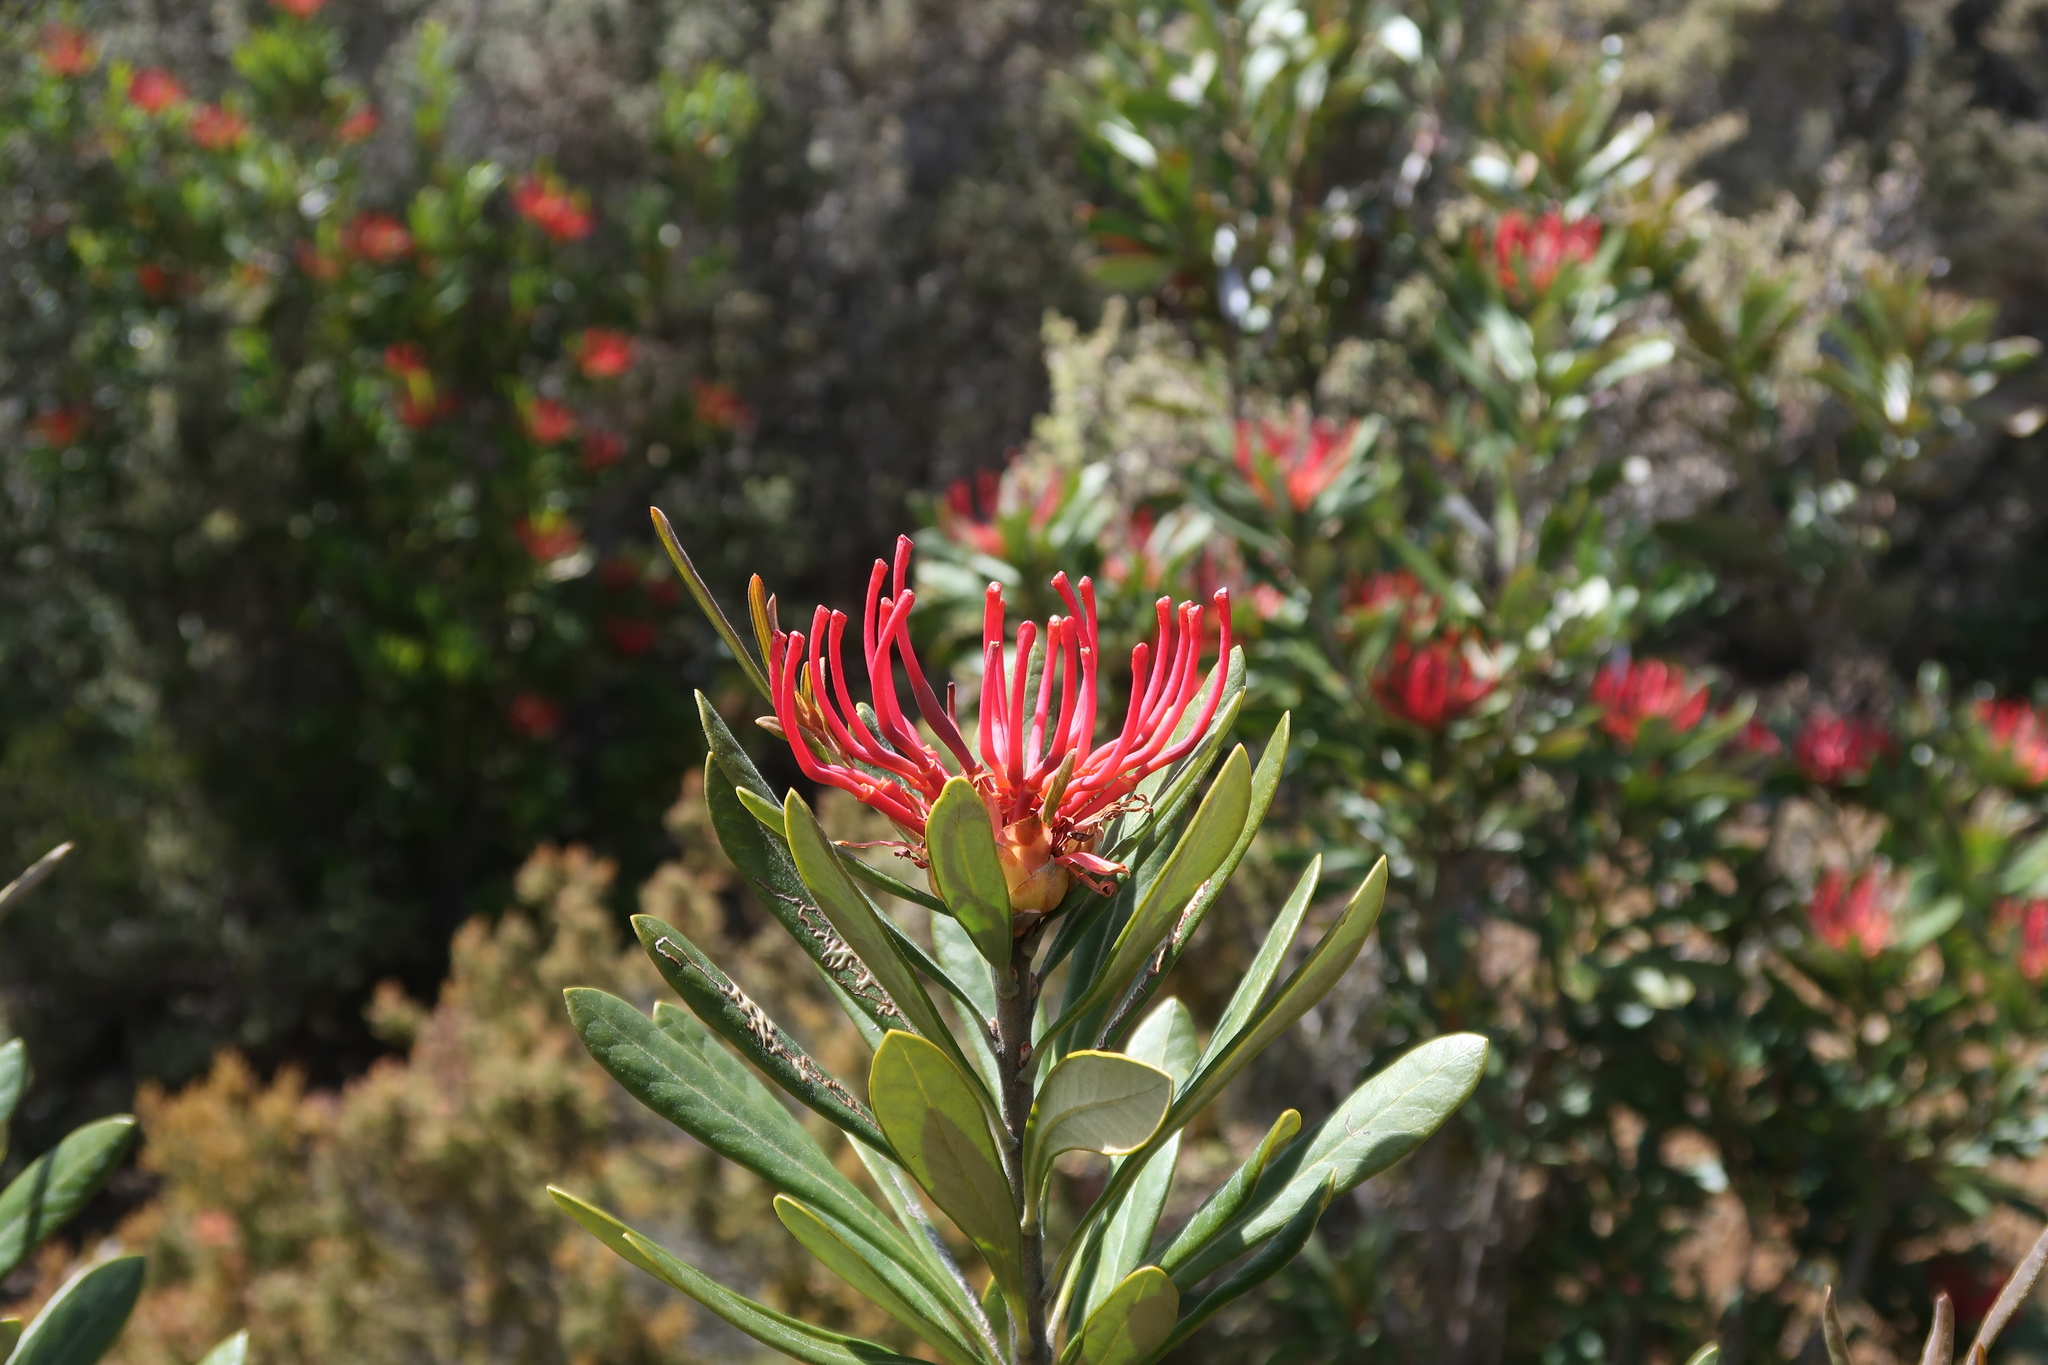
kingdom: Plantae
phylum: Tracheophyta
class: Magnoliopsida
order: Proteales
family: Proteaceae
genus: Telopea
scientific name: Telopea truncata
